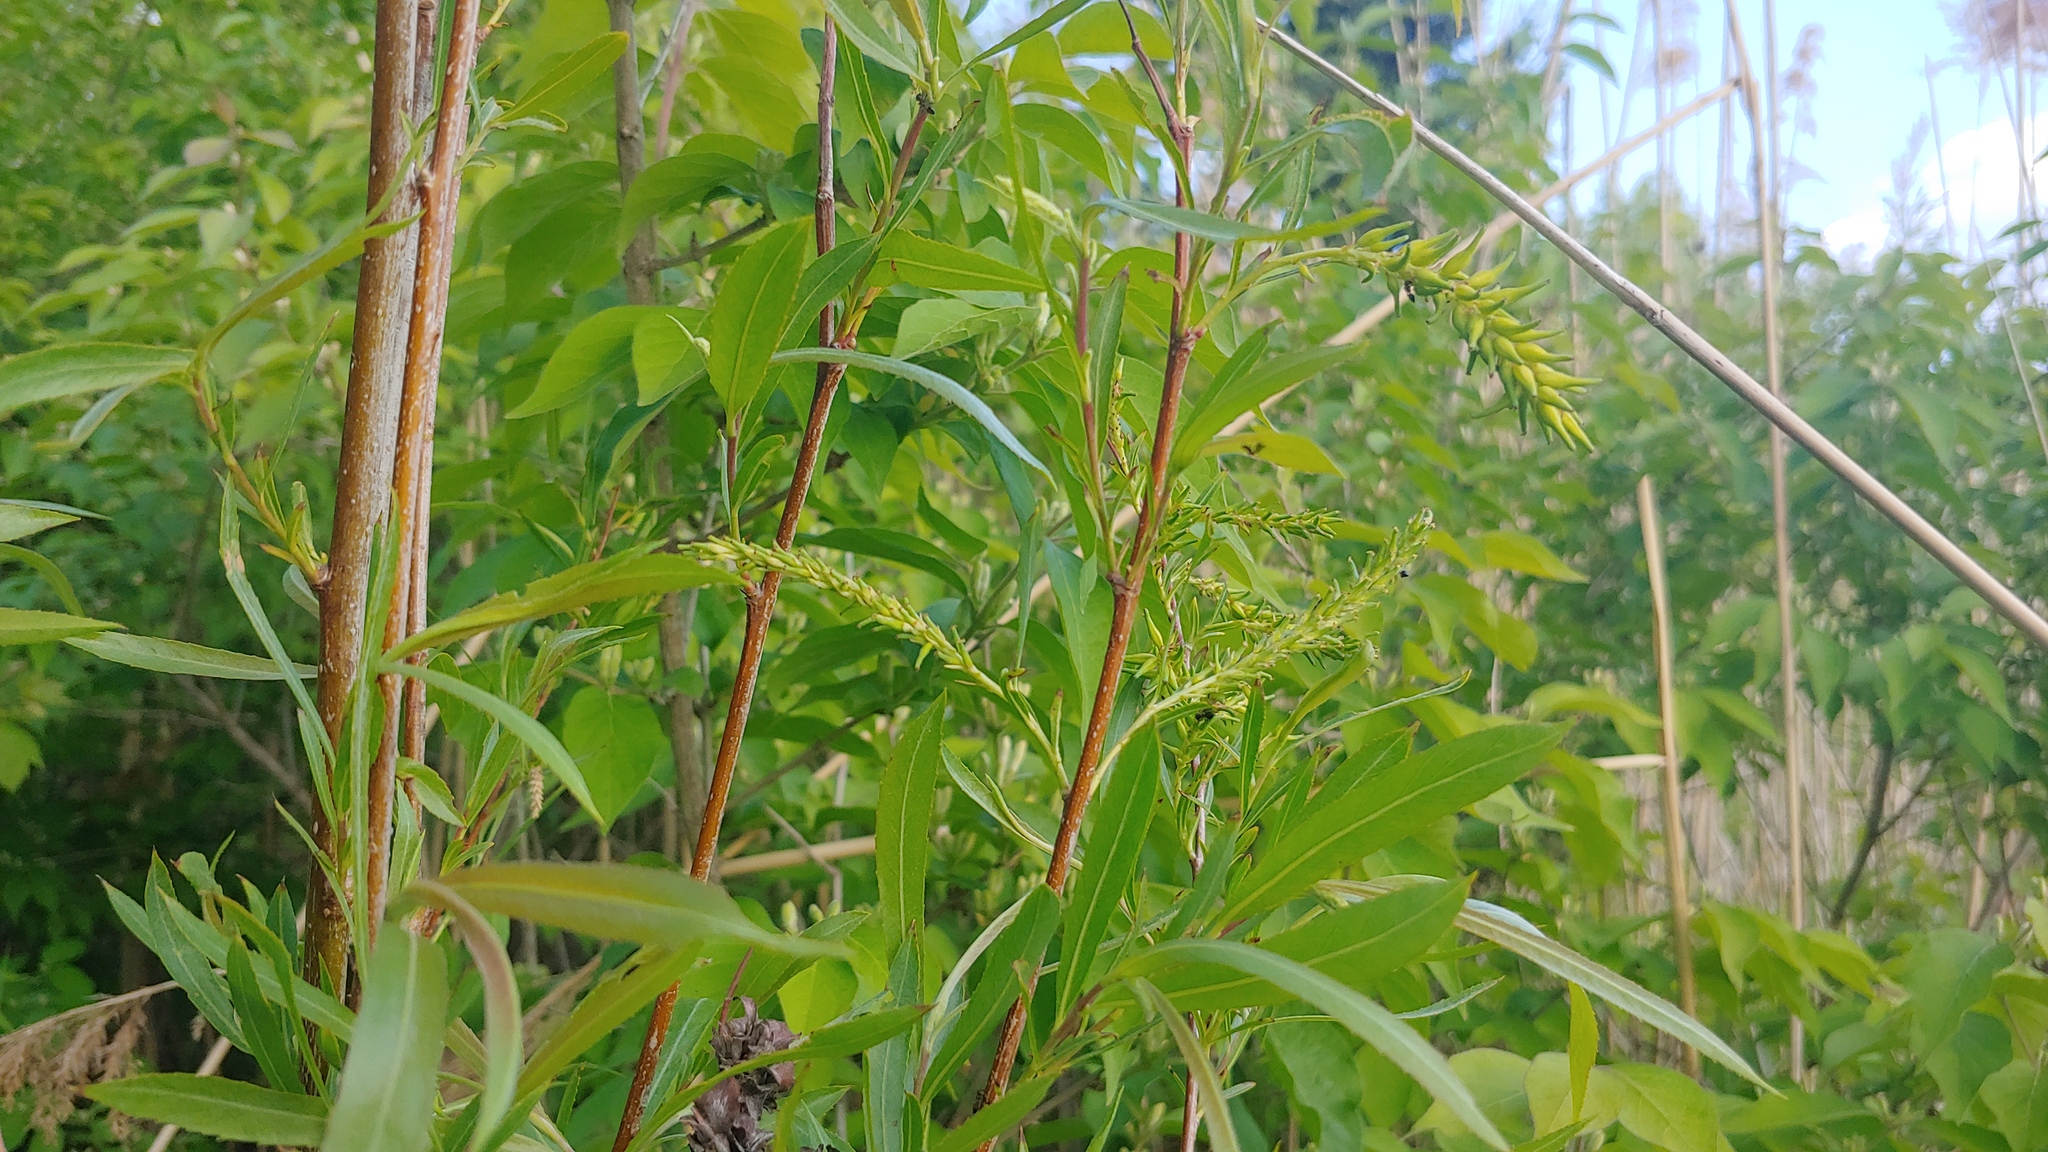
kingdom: Plantae
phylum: Tracheophyta
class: Magnoliopsida
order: Malpighiales
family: Salicaceae
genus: Salix
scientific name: Salix interior
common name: Sandbar willow
